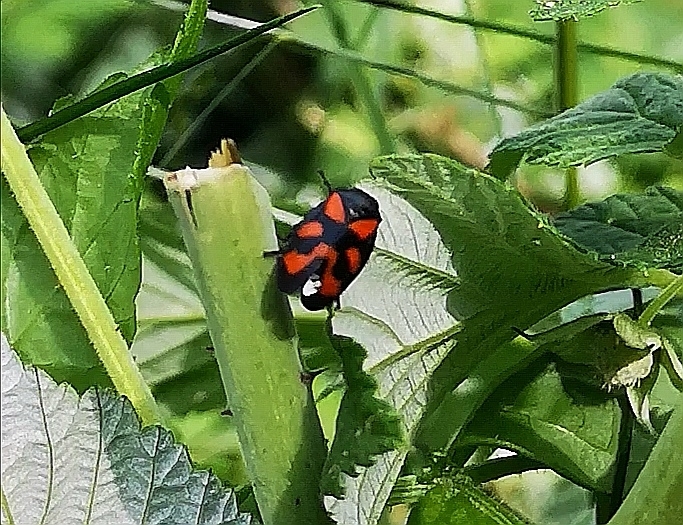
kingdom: Animalia
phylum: Arthropoda
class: Insecta
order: Hemiptera
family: Cercopidae
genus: Cercopis
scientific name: Cercopis vulnerata
